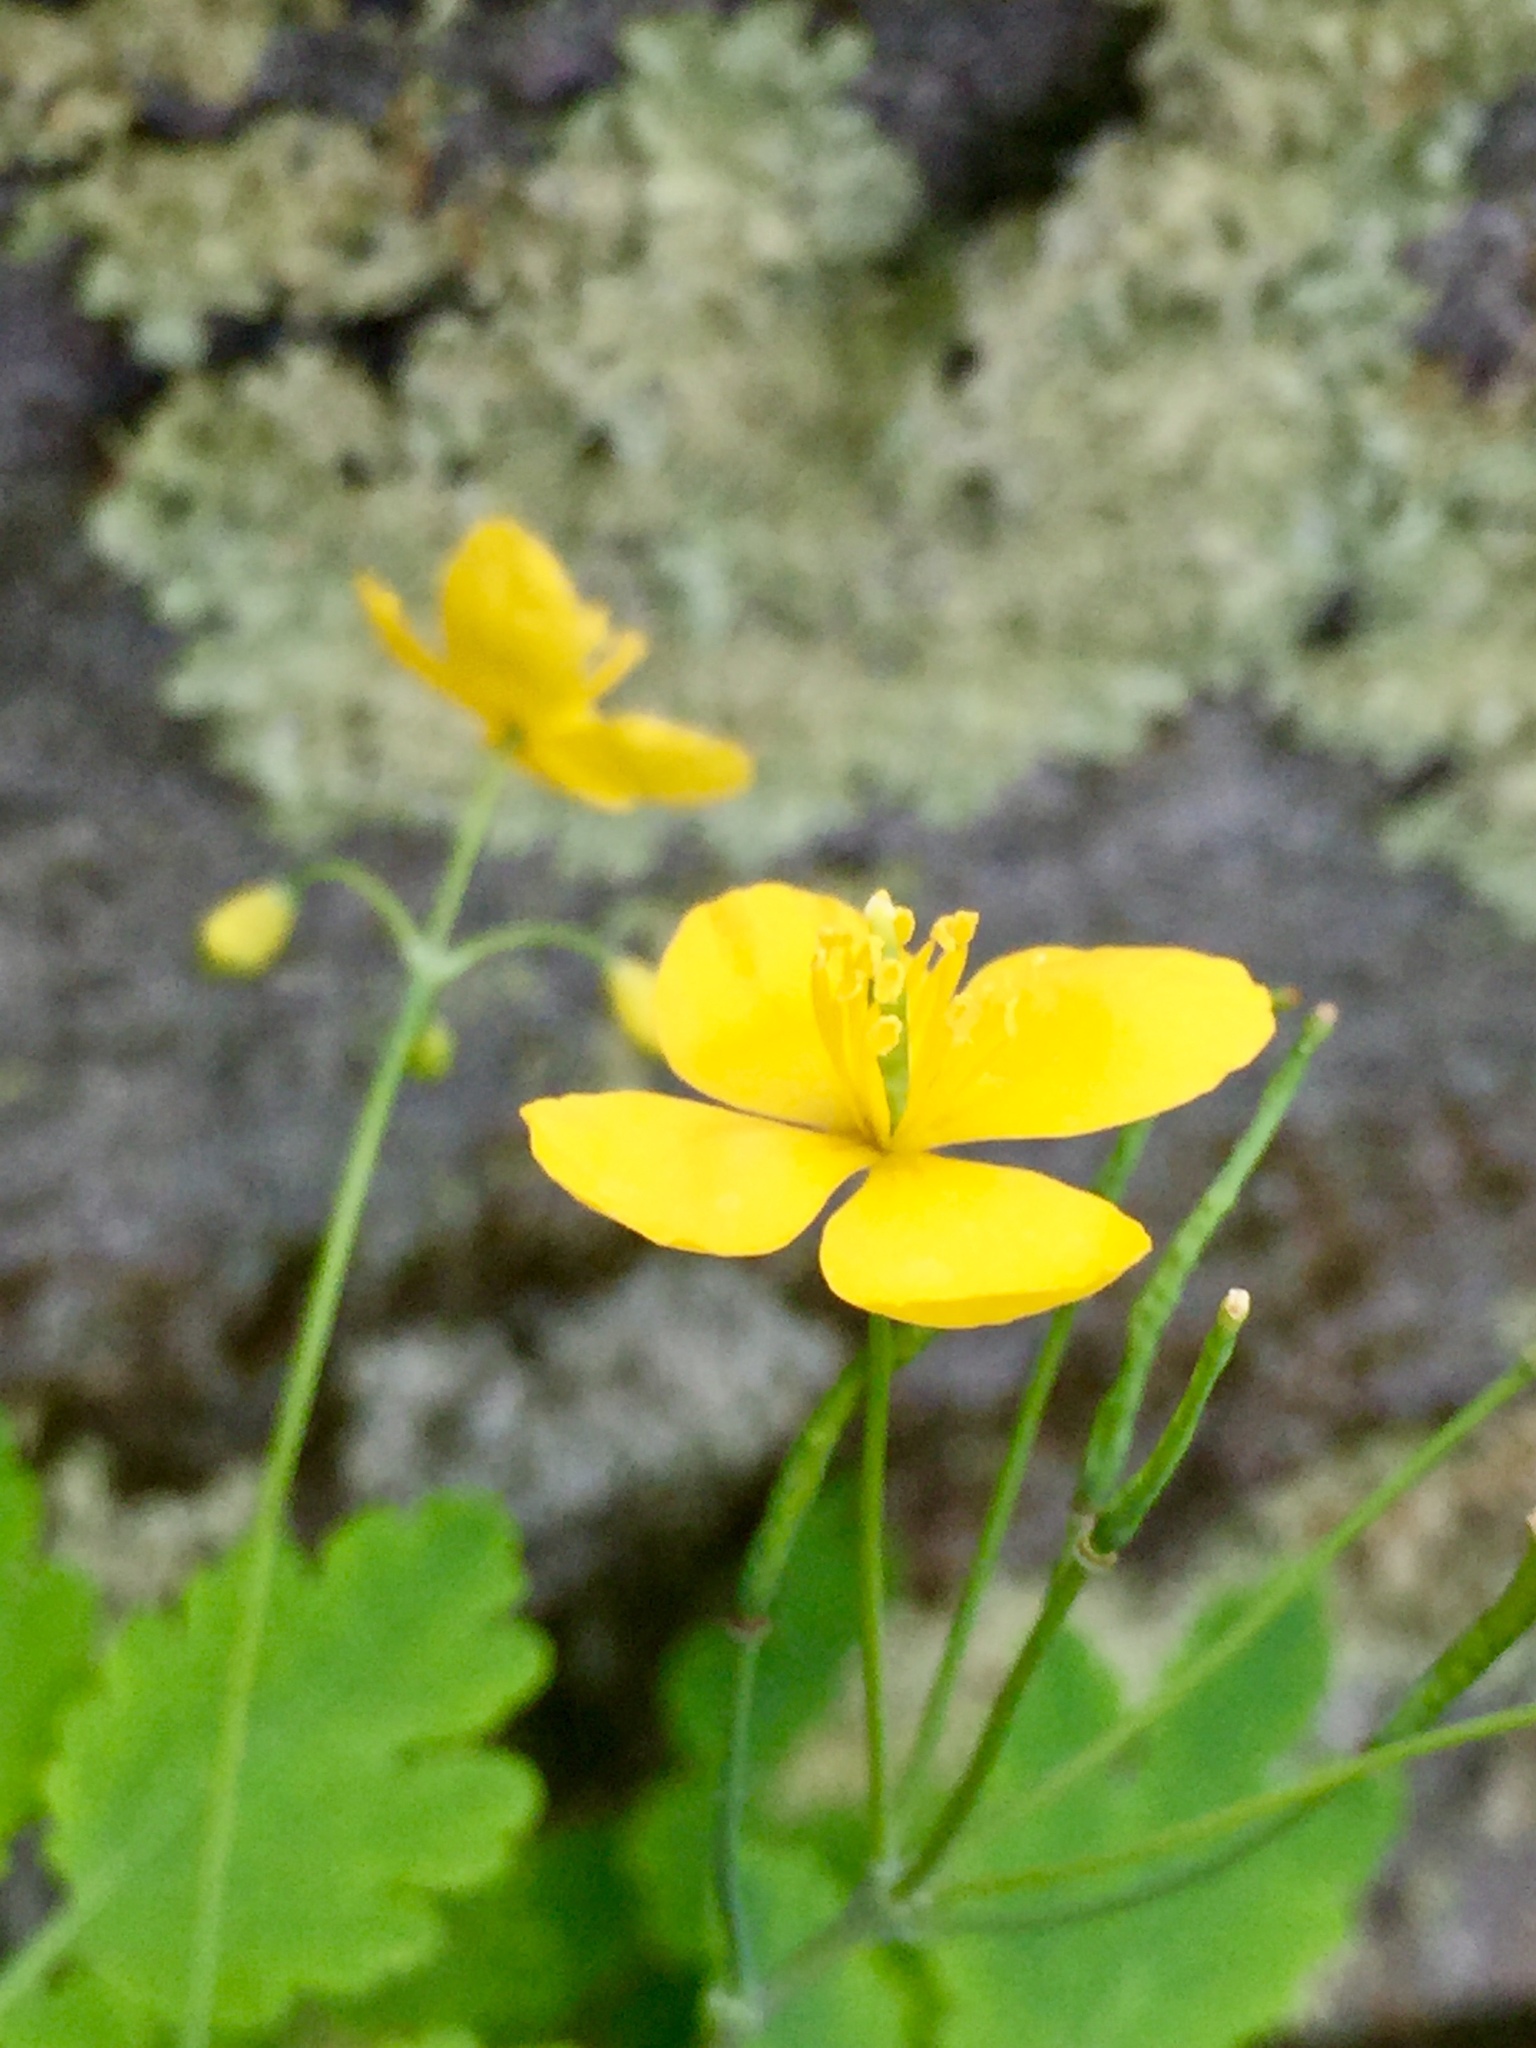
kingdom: Plantae
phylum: Tracheophyta
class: Magnoliopsida
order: Ranunculales
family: Papaveraceae
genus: Chelidonium
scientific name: Chelidonium majus
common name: Greater celandine
